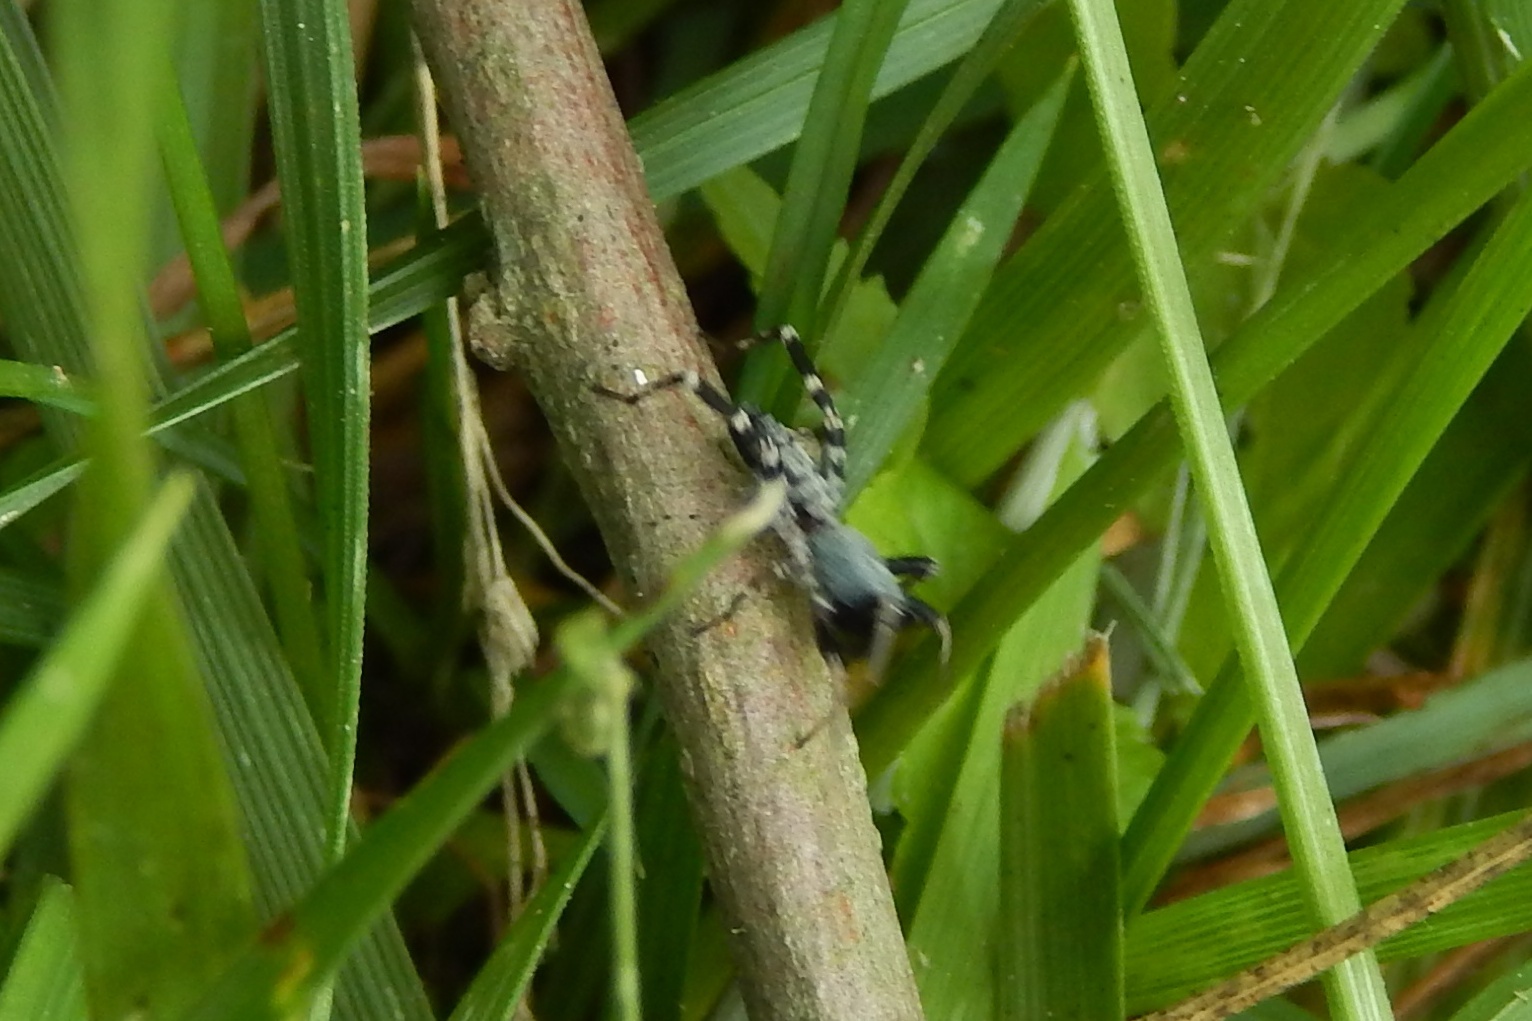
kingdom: Animalia
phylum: Arthropoda
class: Arachnida
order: Araneae
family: Corinnidae
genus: Castianeira
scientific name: Castianeira
